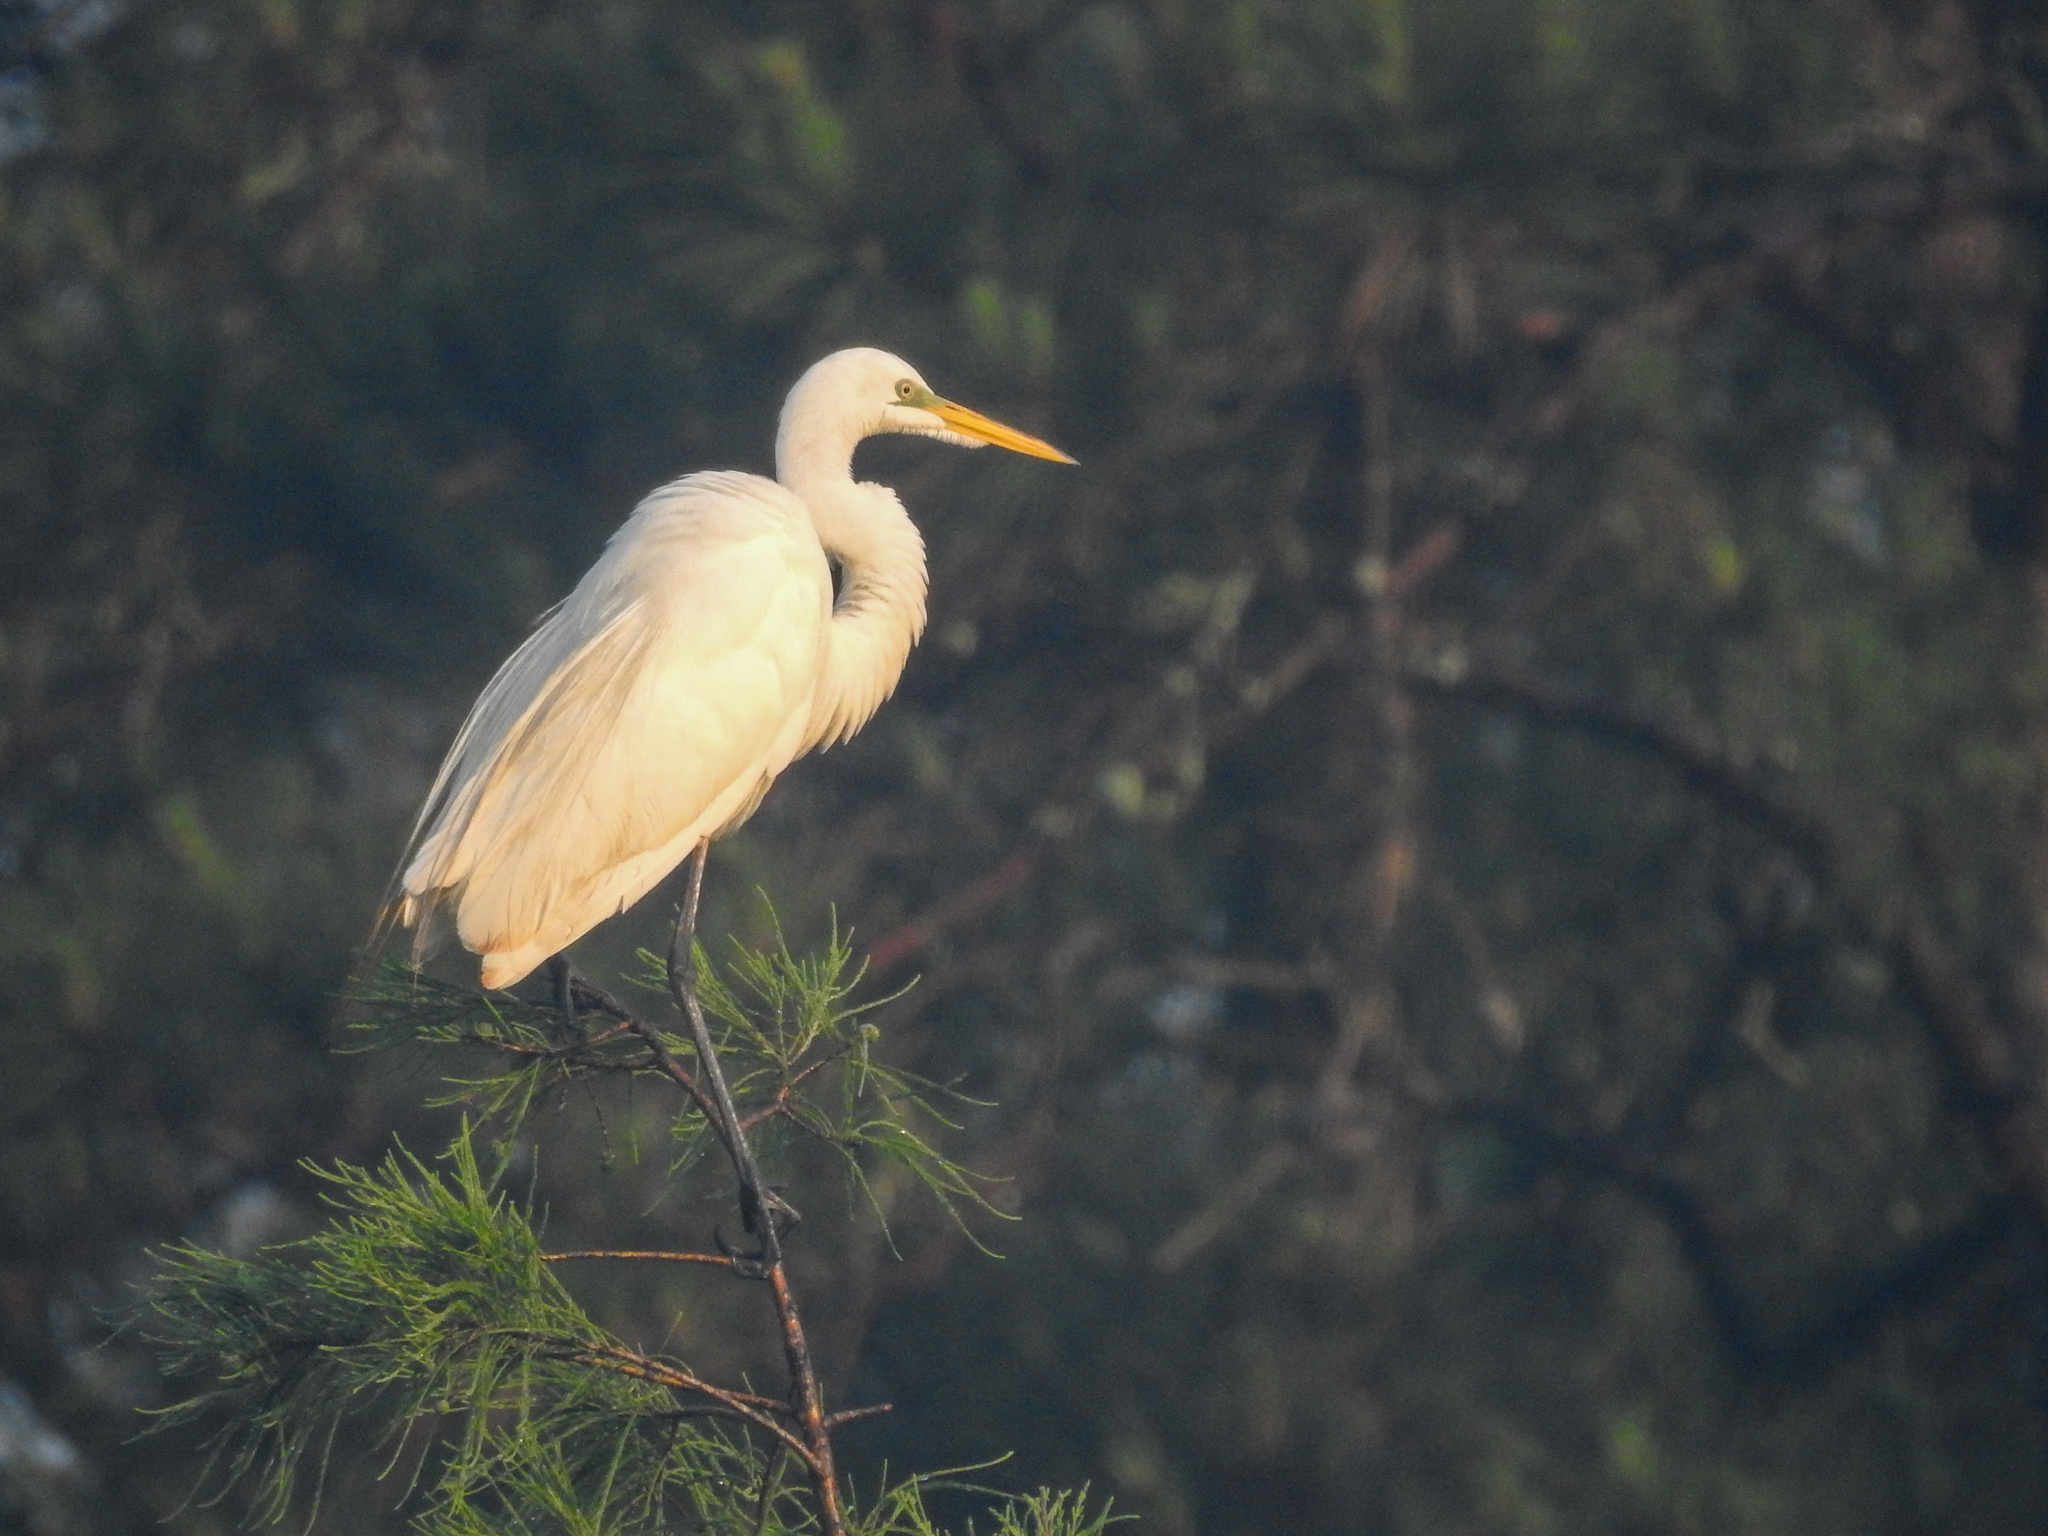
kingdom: Animalia
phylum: Chordata
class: Aves
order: Pelecaniformes
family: Ardeidae
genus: Ardea
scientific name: Ardea alba
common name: Great egret
